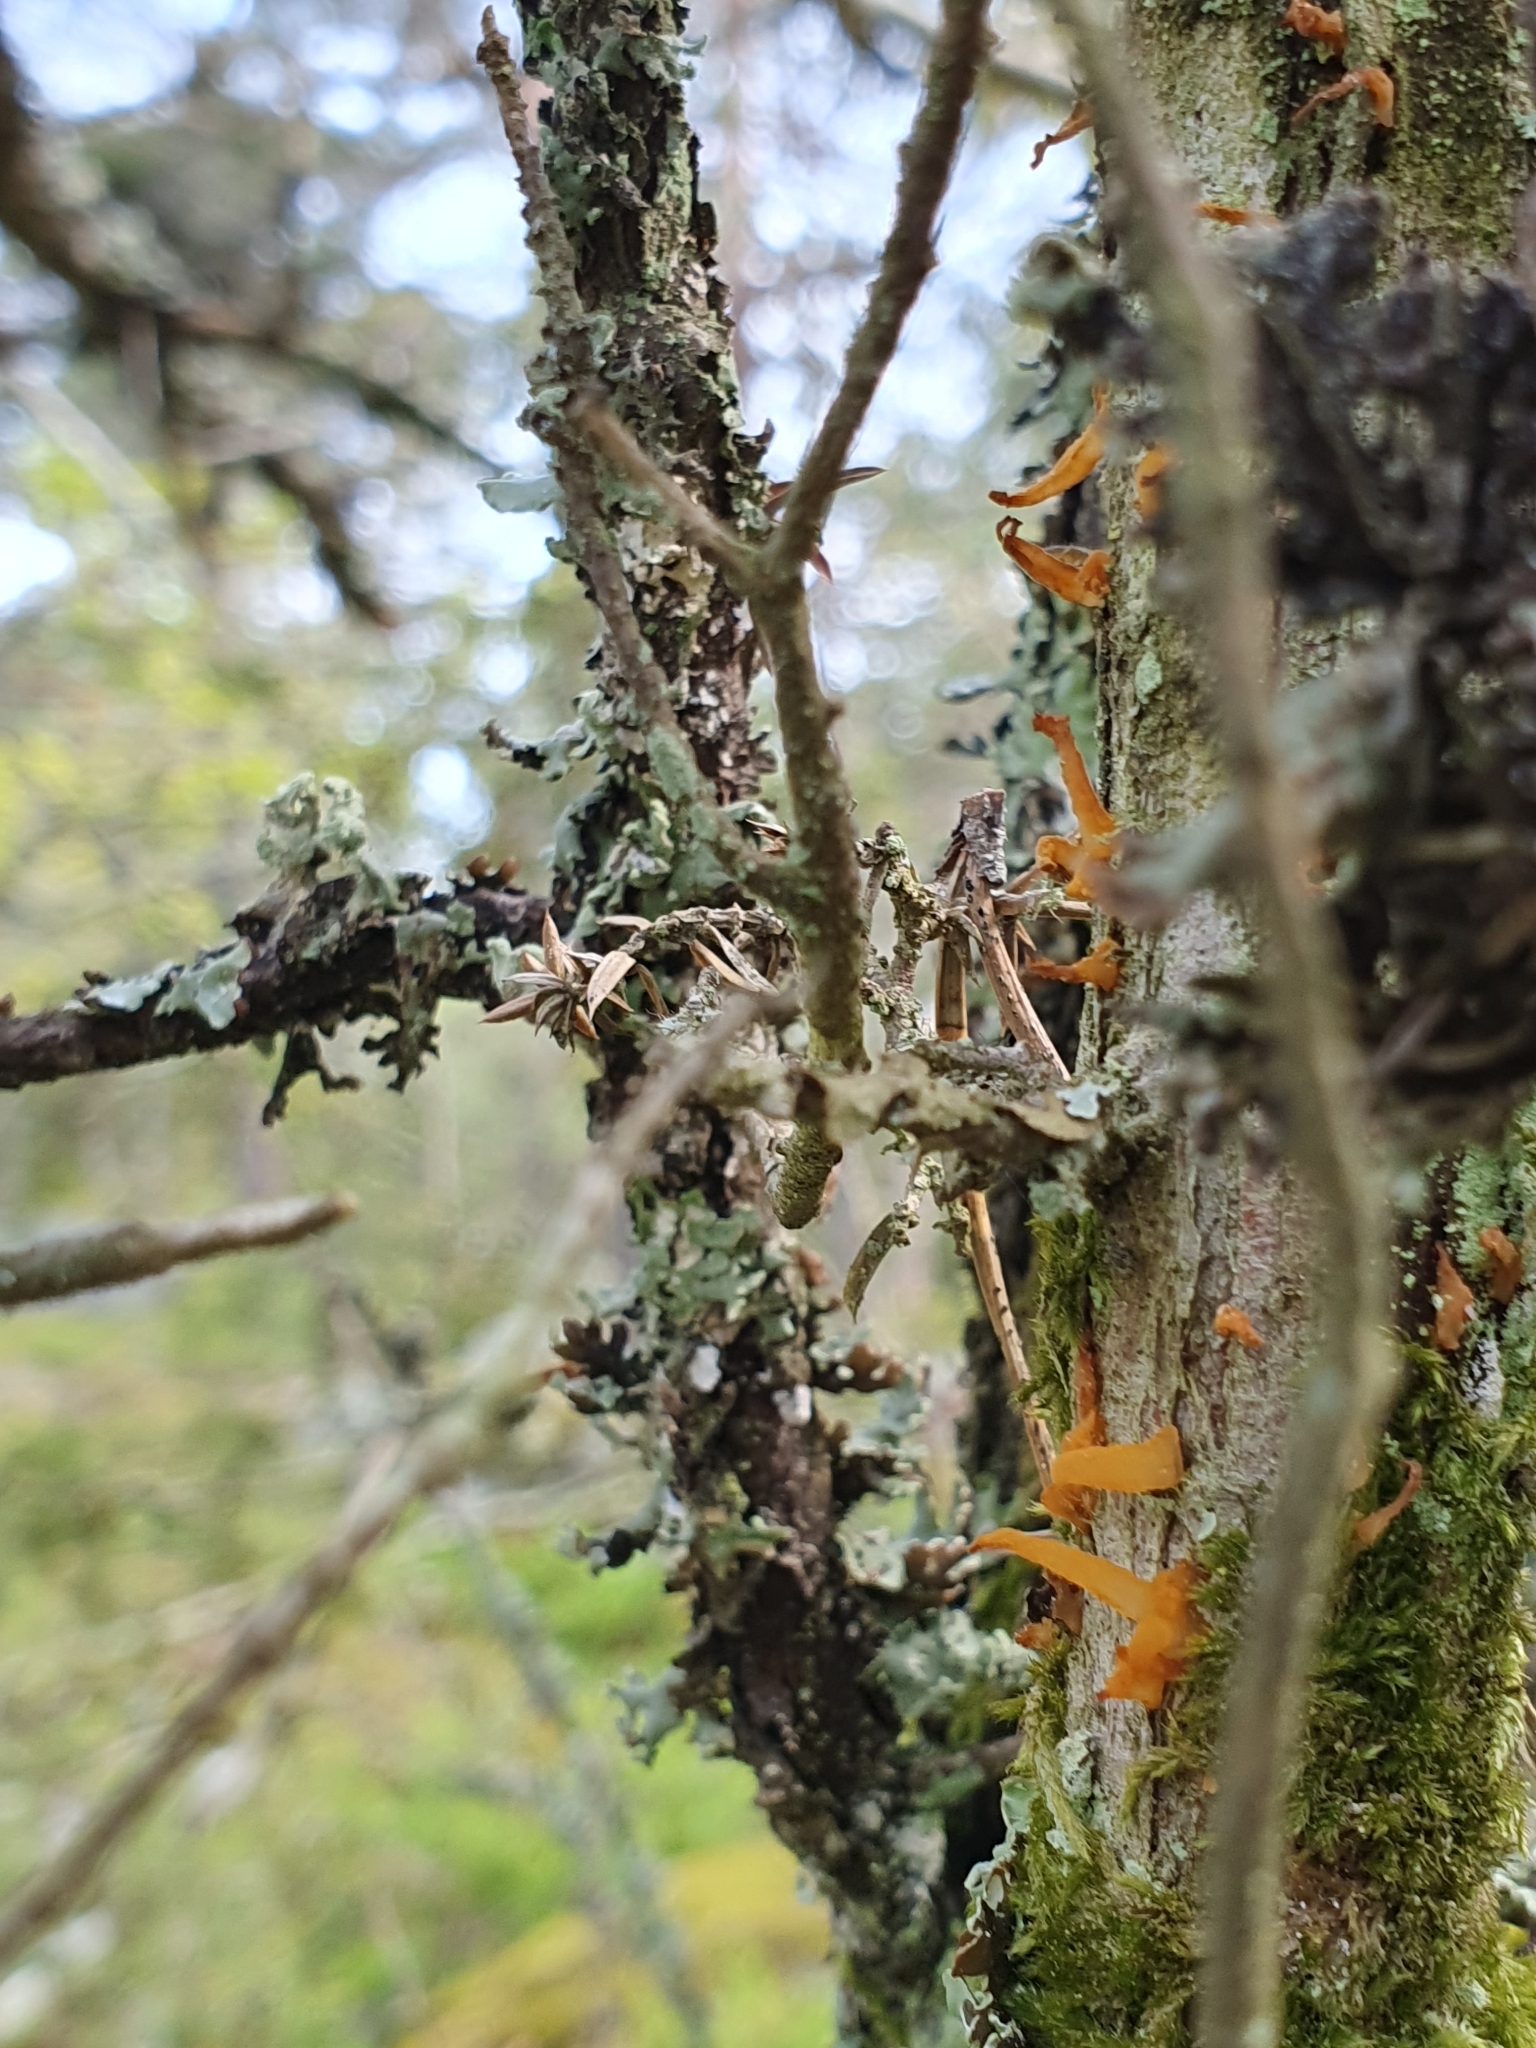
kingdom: Fungi
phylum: Basidiomycota
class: Pucciniomycetes
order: Pucciniales
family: Gymnosporangiaceae
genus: Gymnosporangium
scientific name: Gymnosporangium clavariiforme
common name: Tongues of fire
